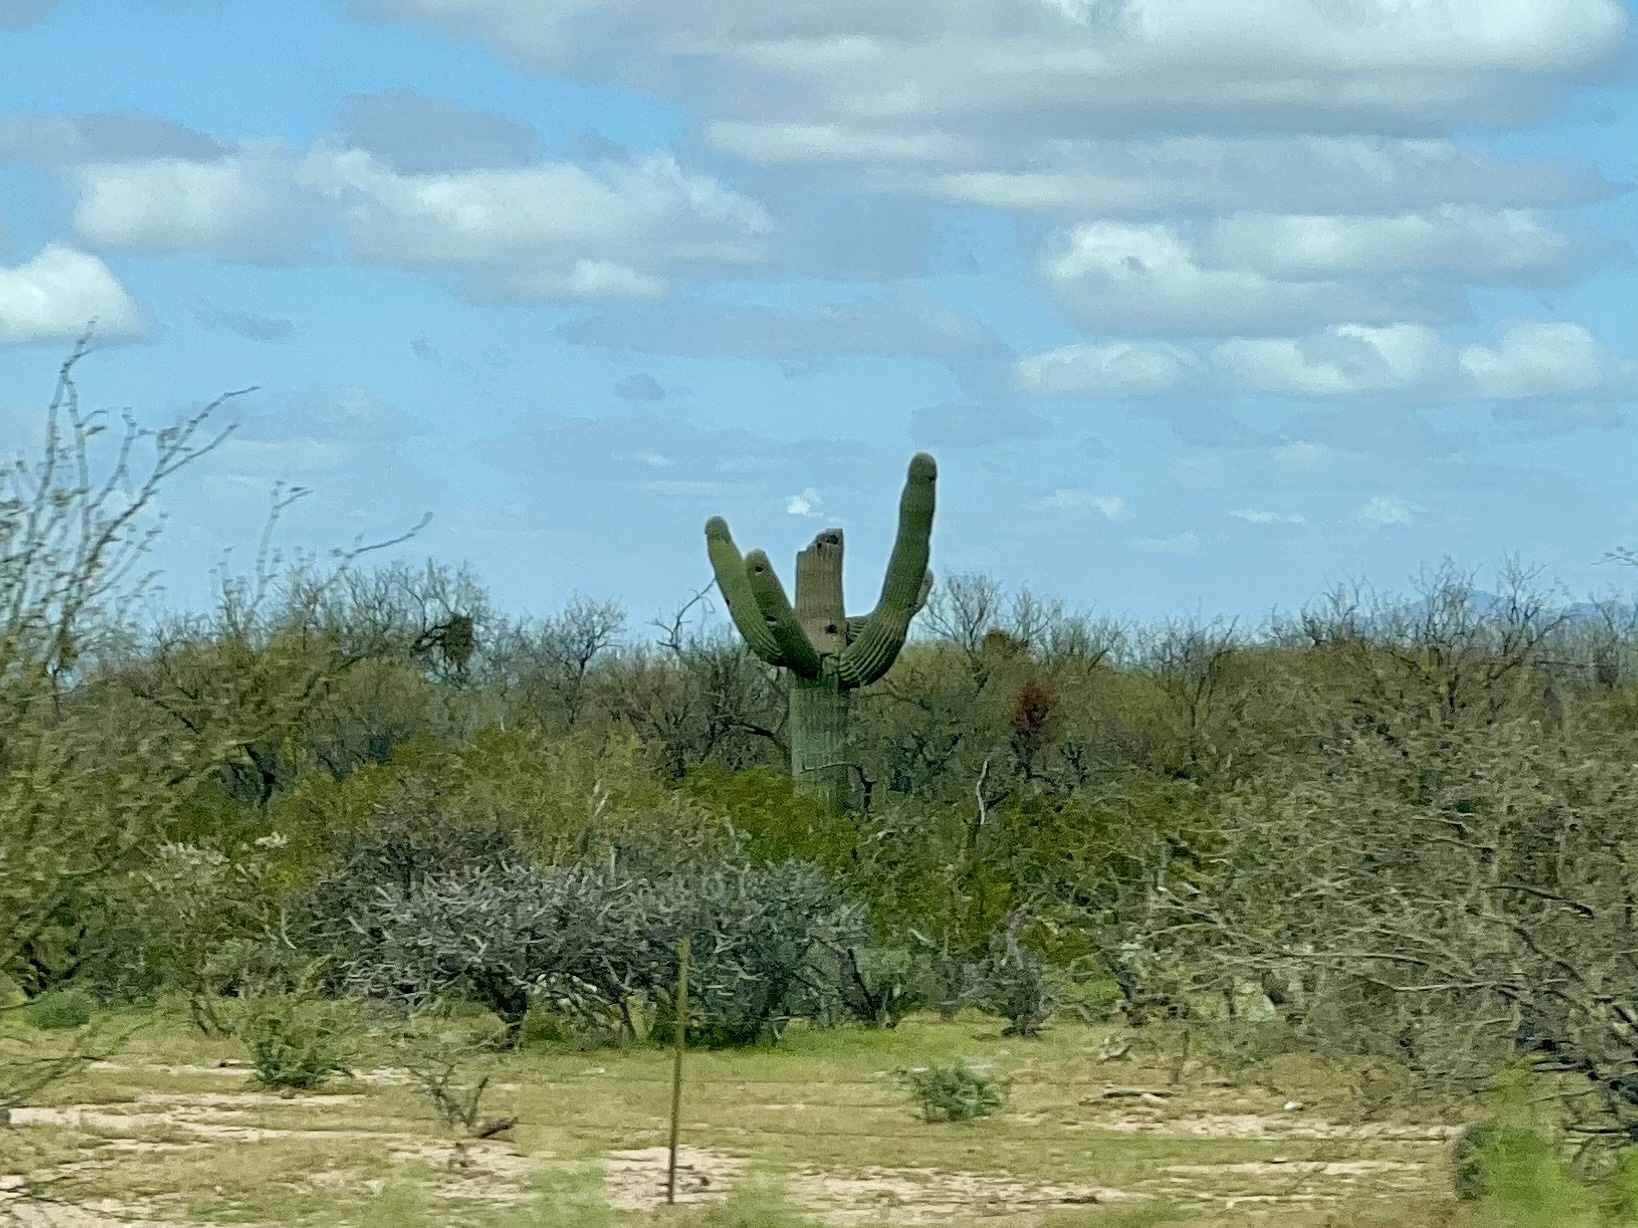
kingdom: Plantae
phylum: Tracheophyta
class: Magnoliopsida
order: Caryophyllales
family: Cactaceae
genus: Carnegiea
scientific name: Carnegiea gigantea
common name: Saguaro
